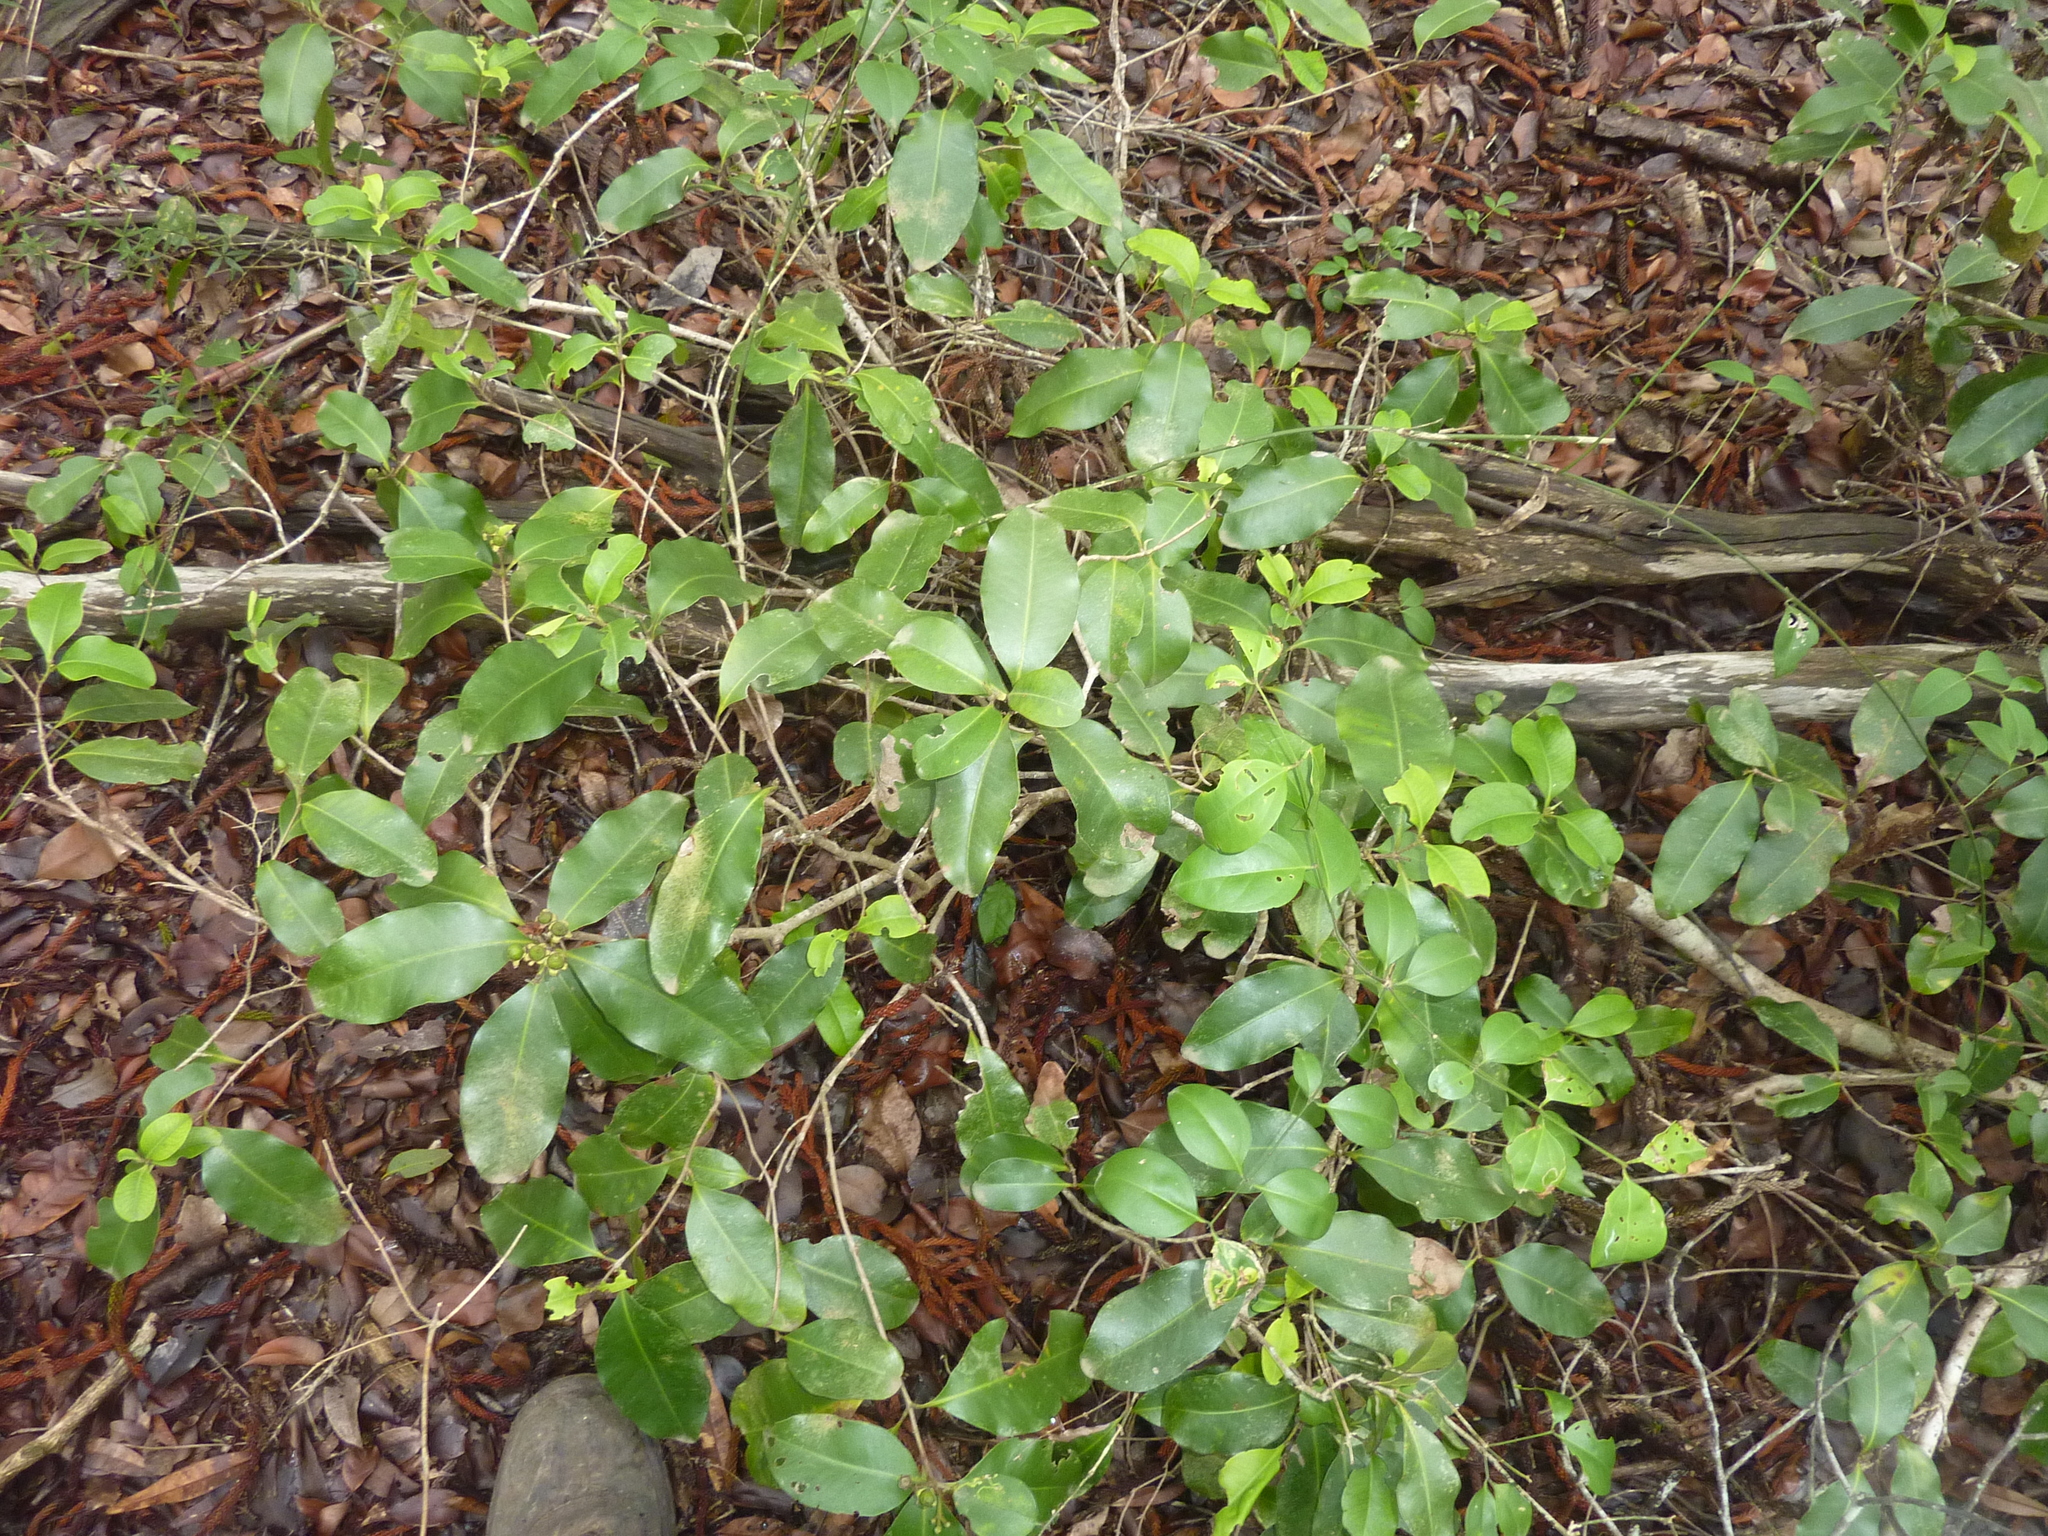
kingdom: Plantae
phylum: Tracheophyta
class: Magnoliopsida
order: Myrtales
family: Myrtaceae
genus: Xanthostemon
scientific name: Xanthostemon oppositifolius
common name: Southern penda
